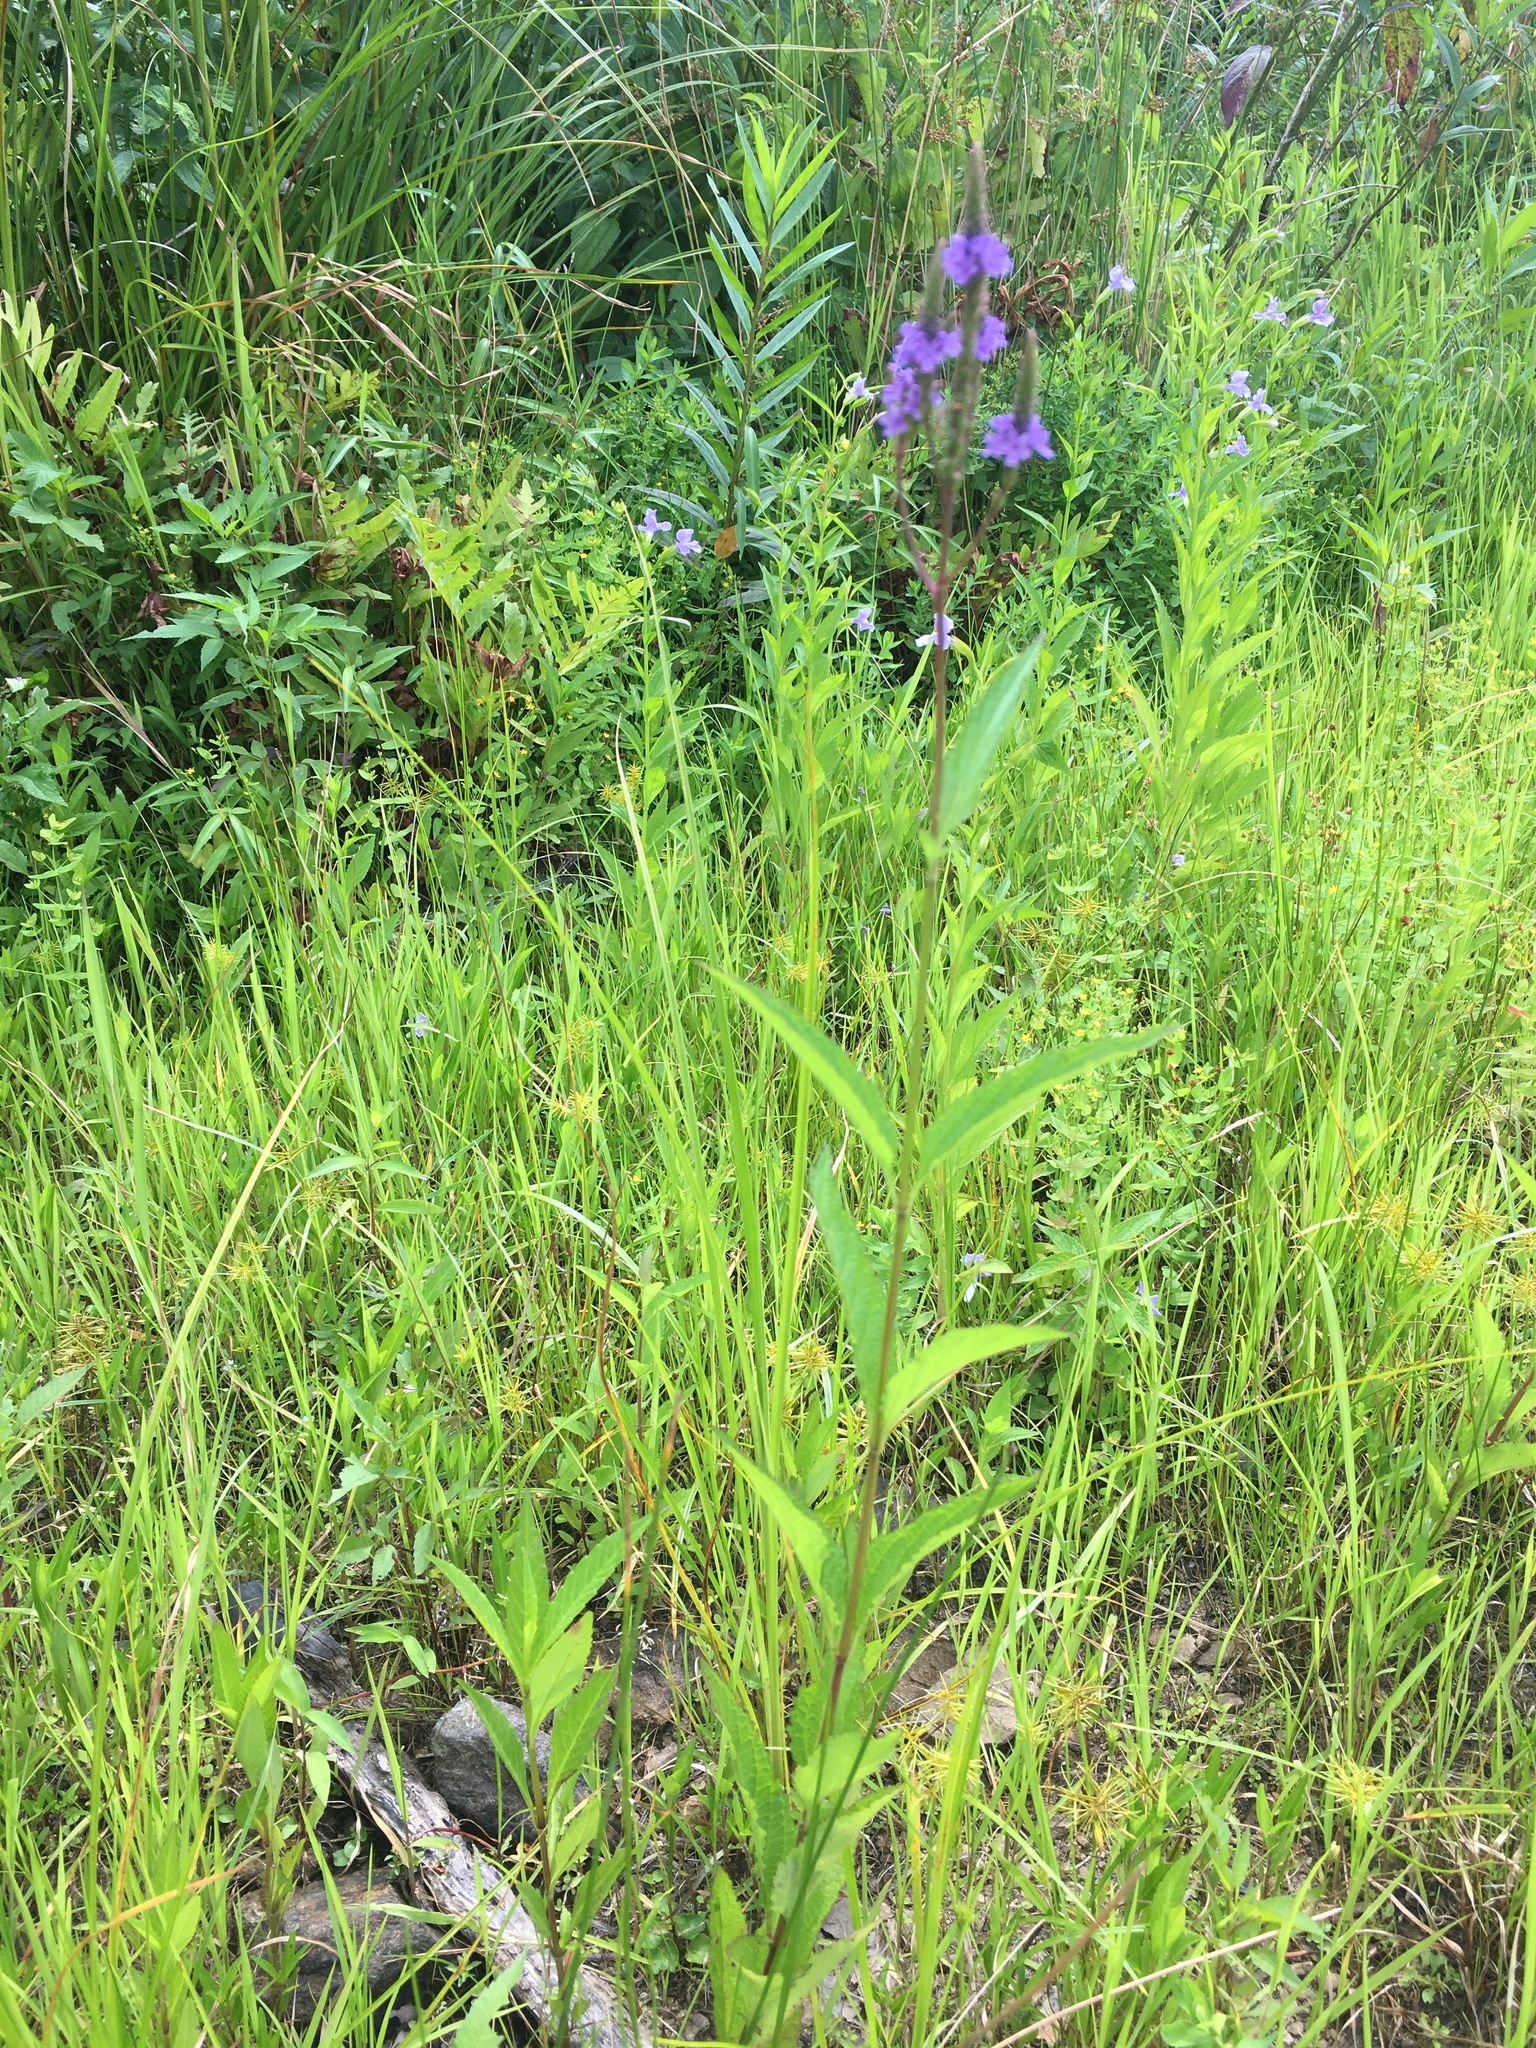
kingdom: Plantae
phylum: Tracheophyta
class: Magnoliopsida
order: Lamiales
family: Verbenaceae
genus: Verbena
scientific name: Verbena hastata
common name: American blue vervain
